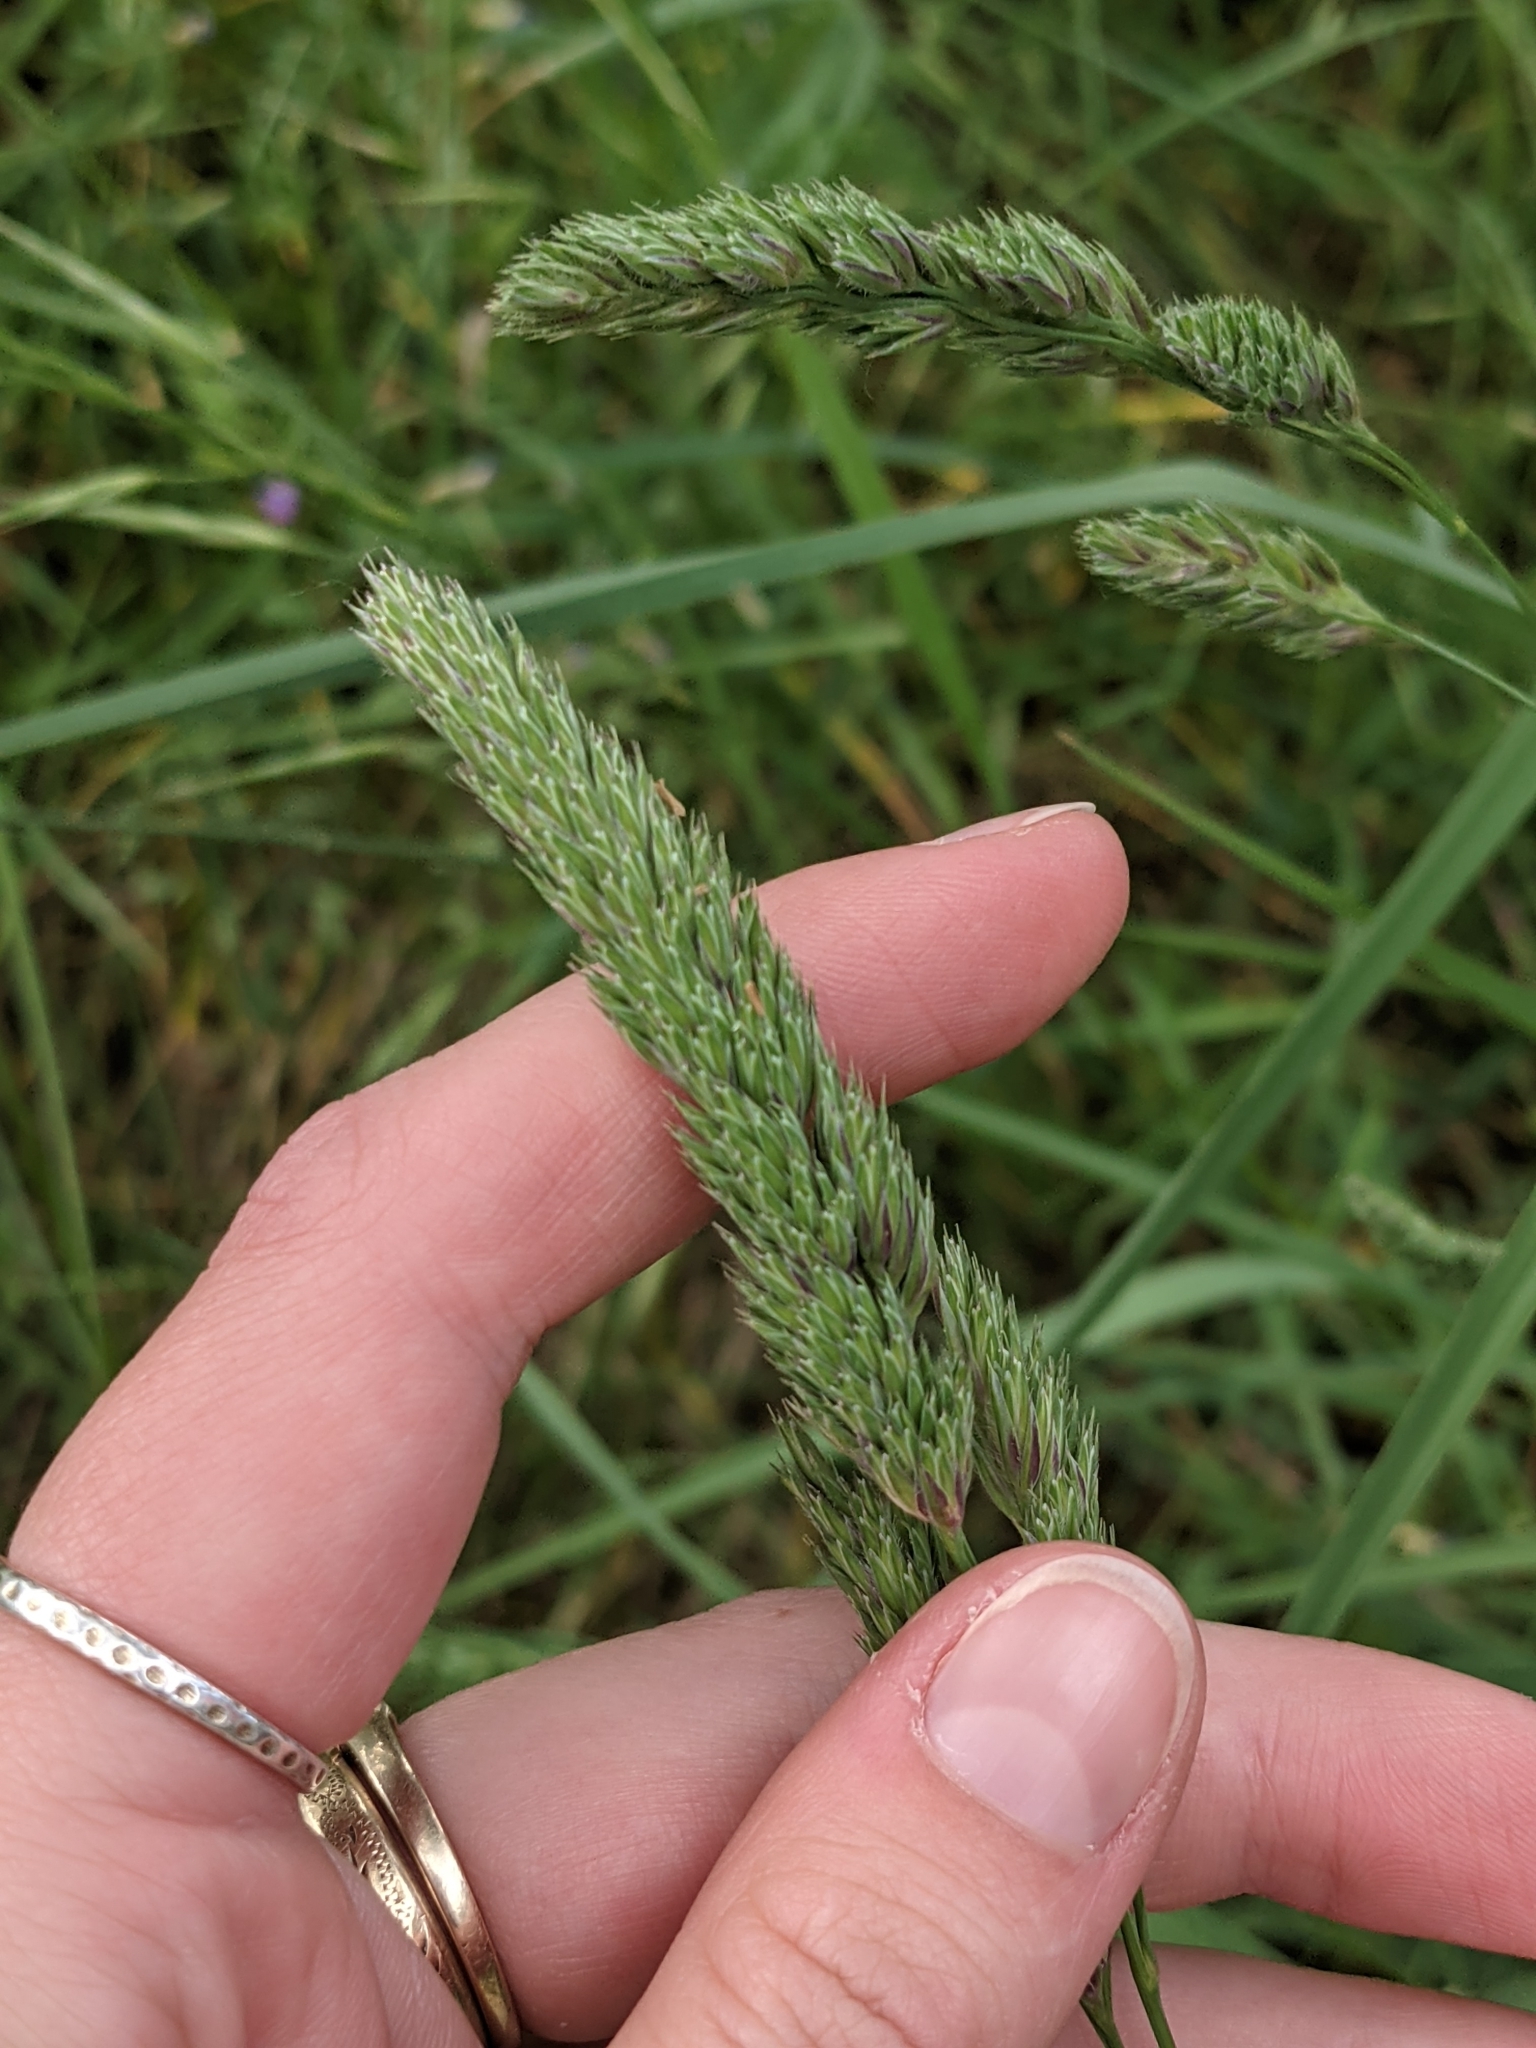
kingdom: Plantae
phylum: Tracheophyta
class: Liliopsida
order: Poales
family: Poaceae
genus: Dactylis
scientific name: Dactylis glomerata
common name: Orchardgrass
